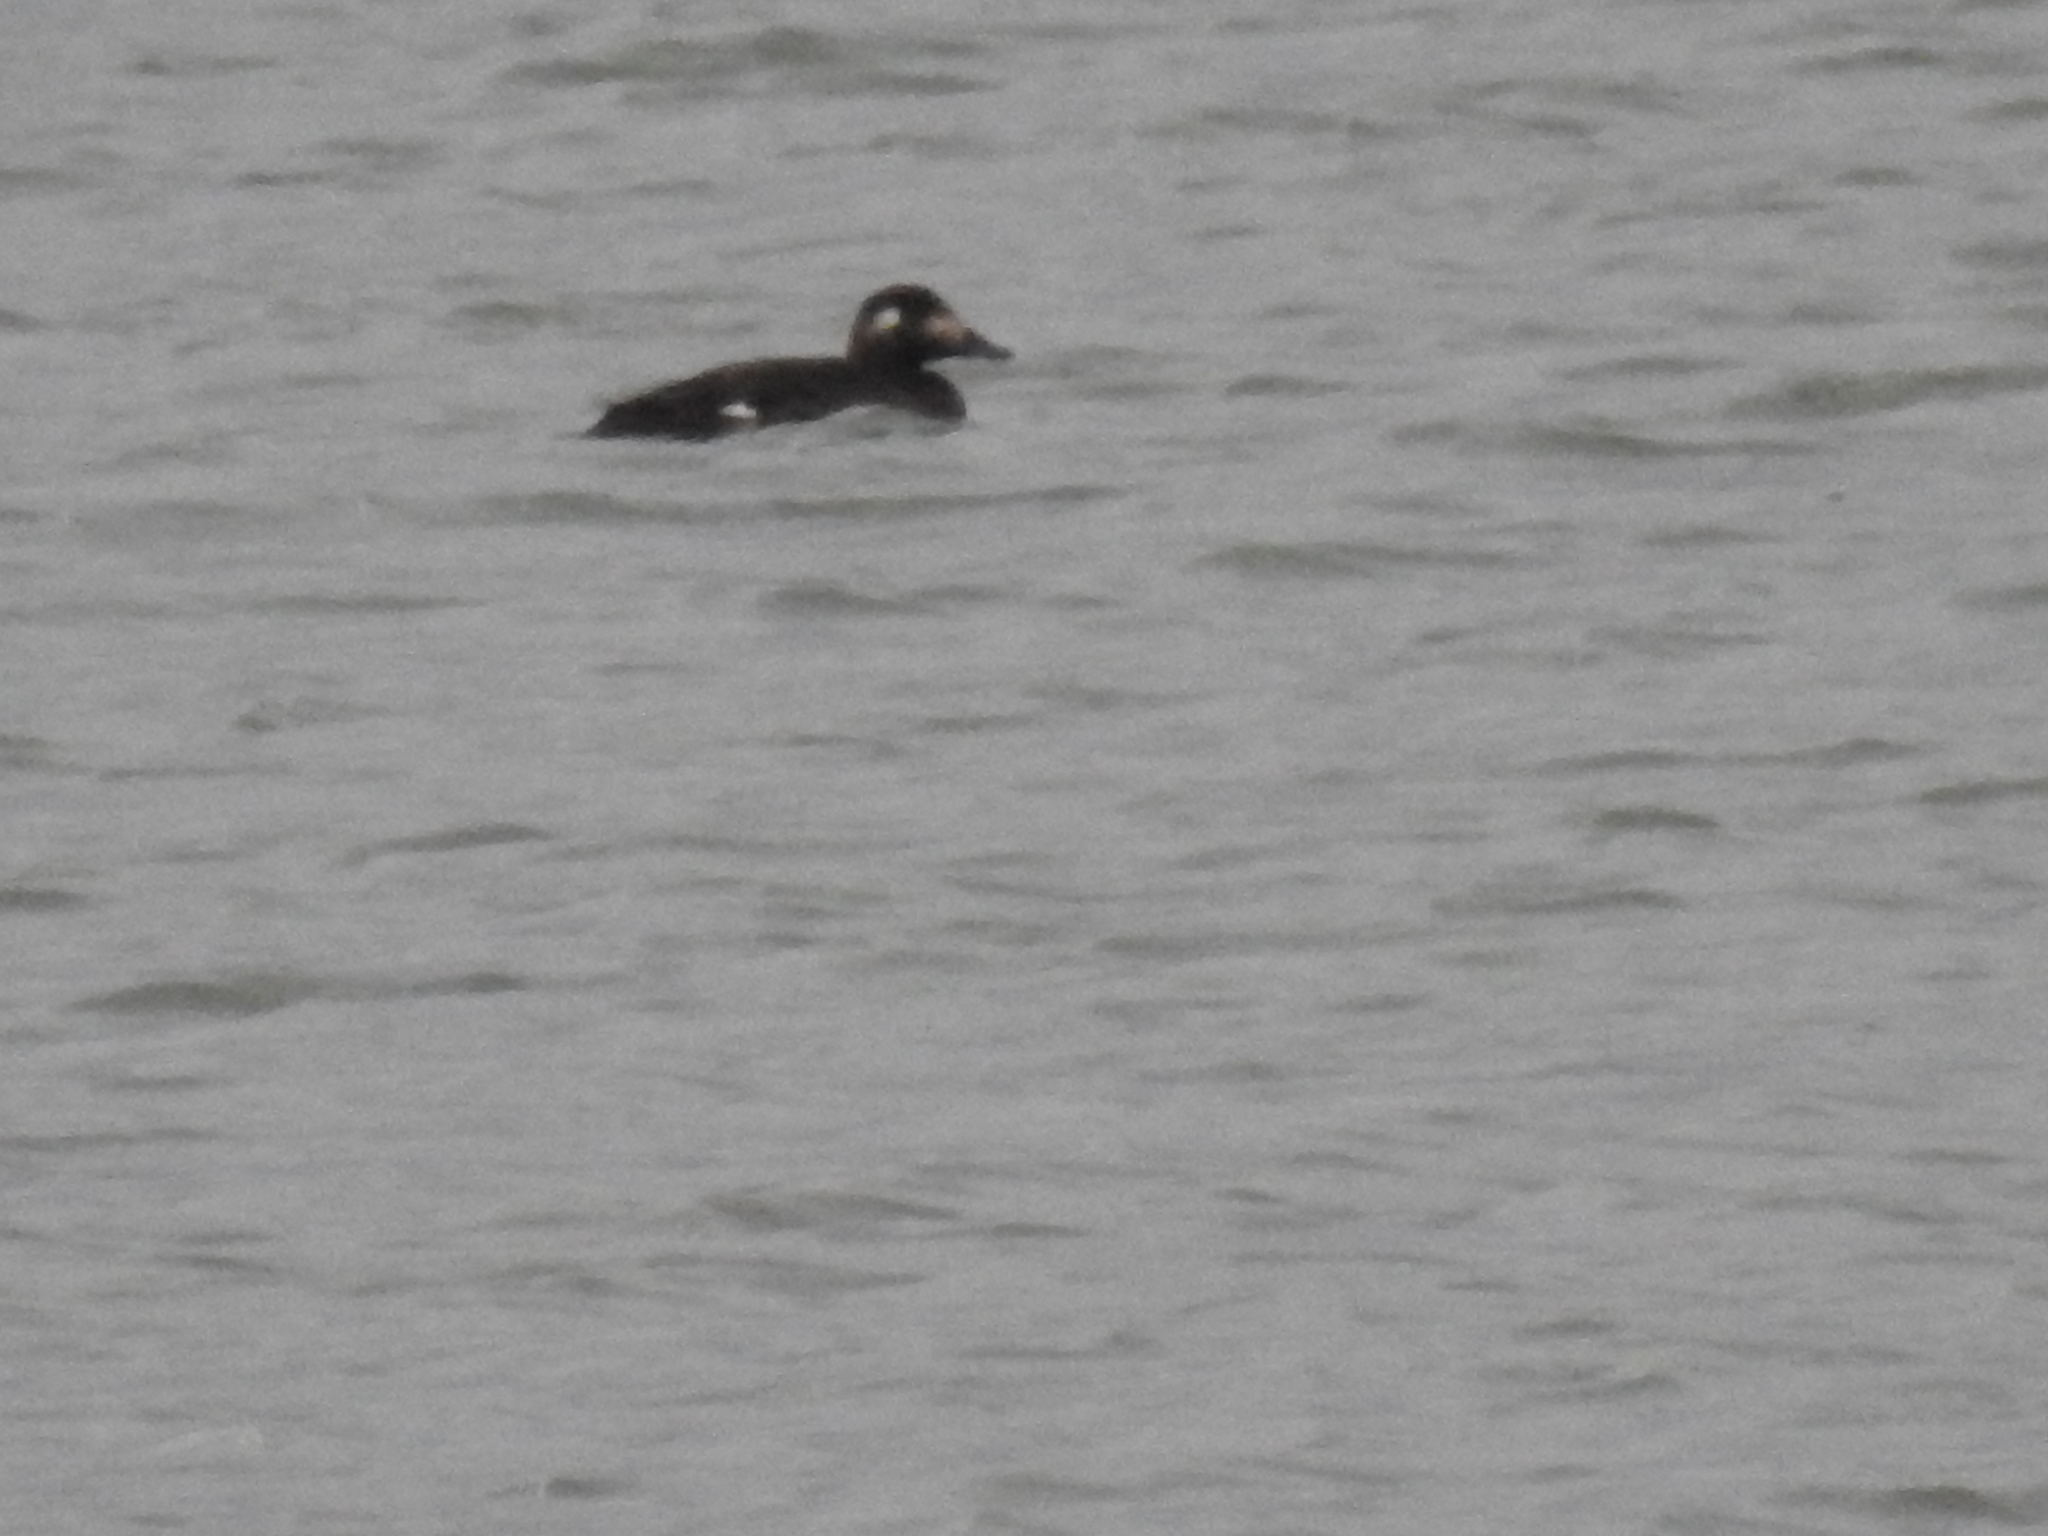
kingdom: Animalia
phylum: Chordata
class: Aves
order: Anseriformes
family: Anatidae
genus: Melanitta
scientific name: Melanitta deglandi
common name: White-winged scoter
